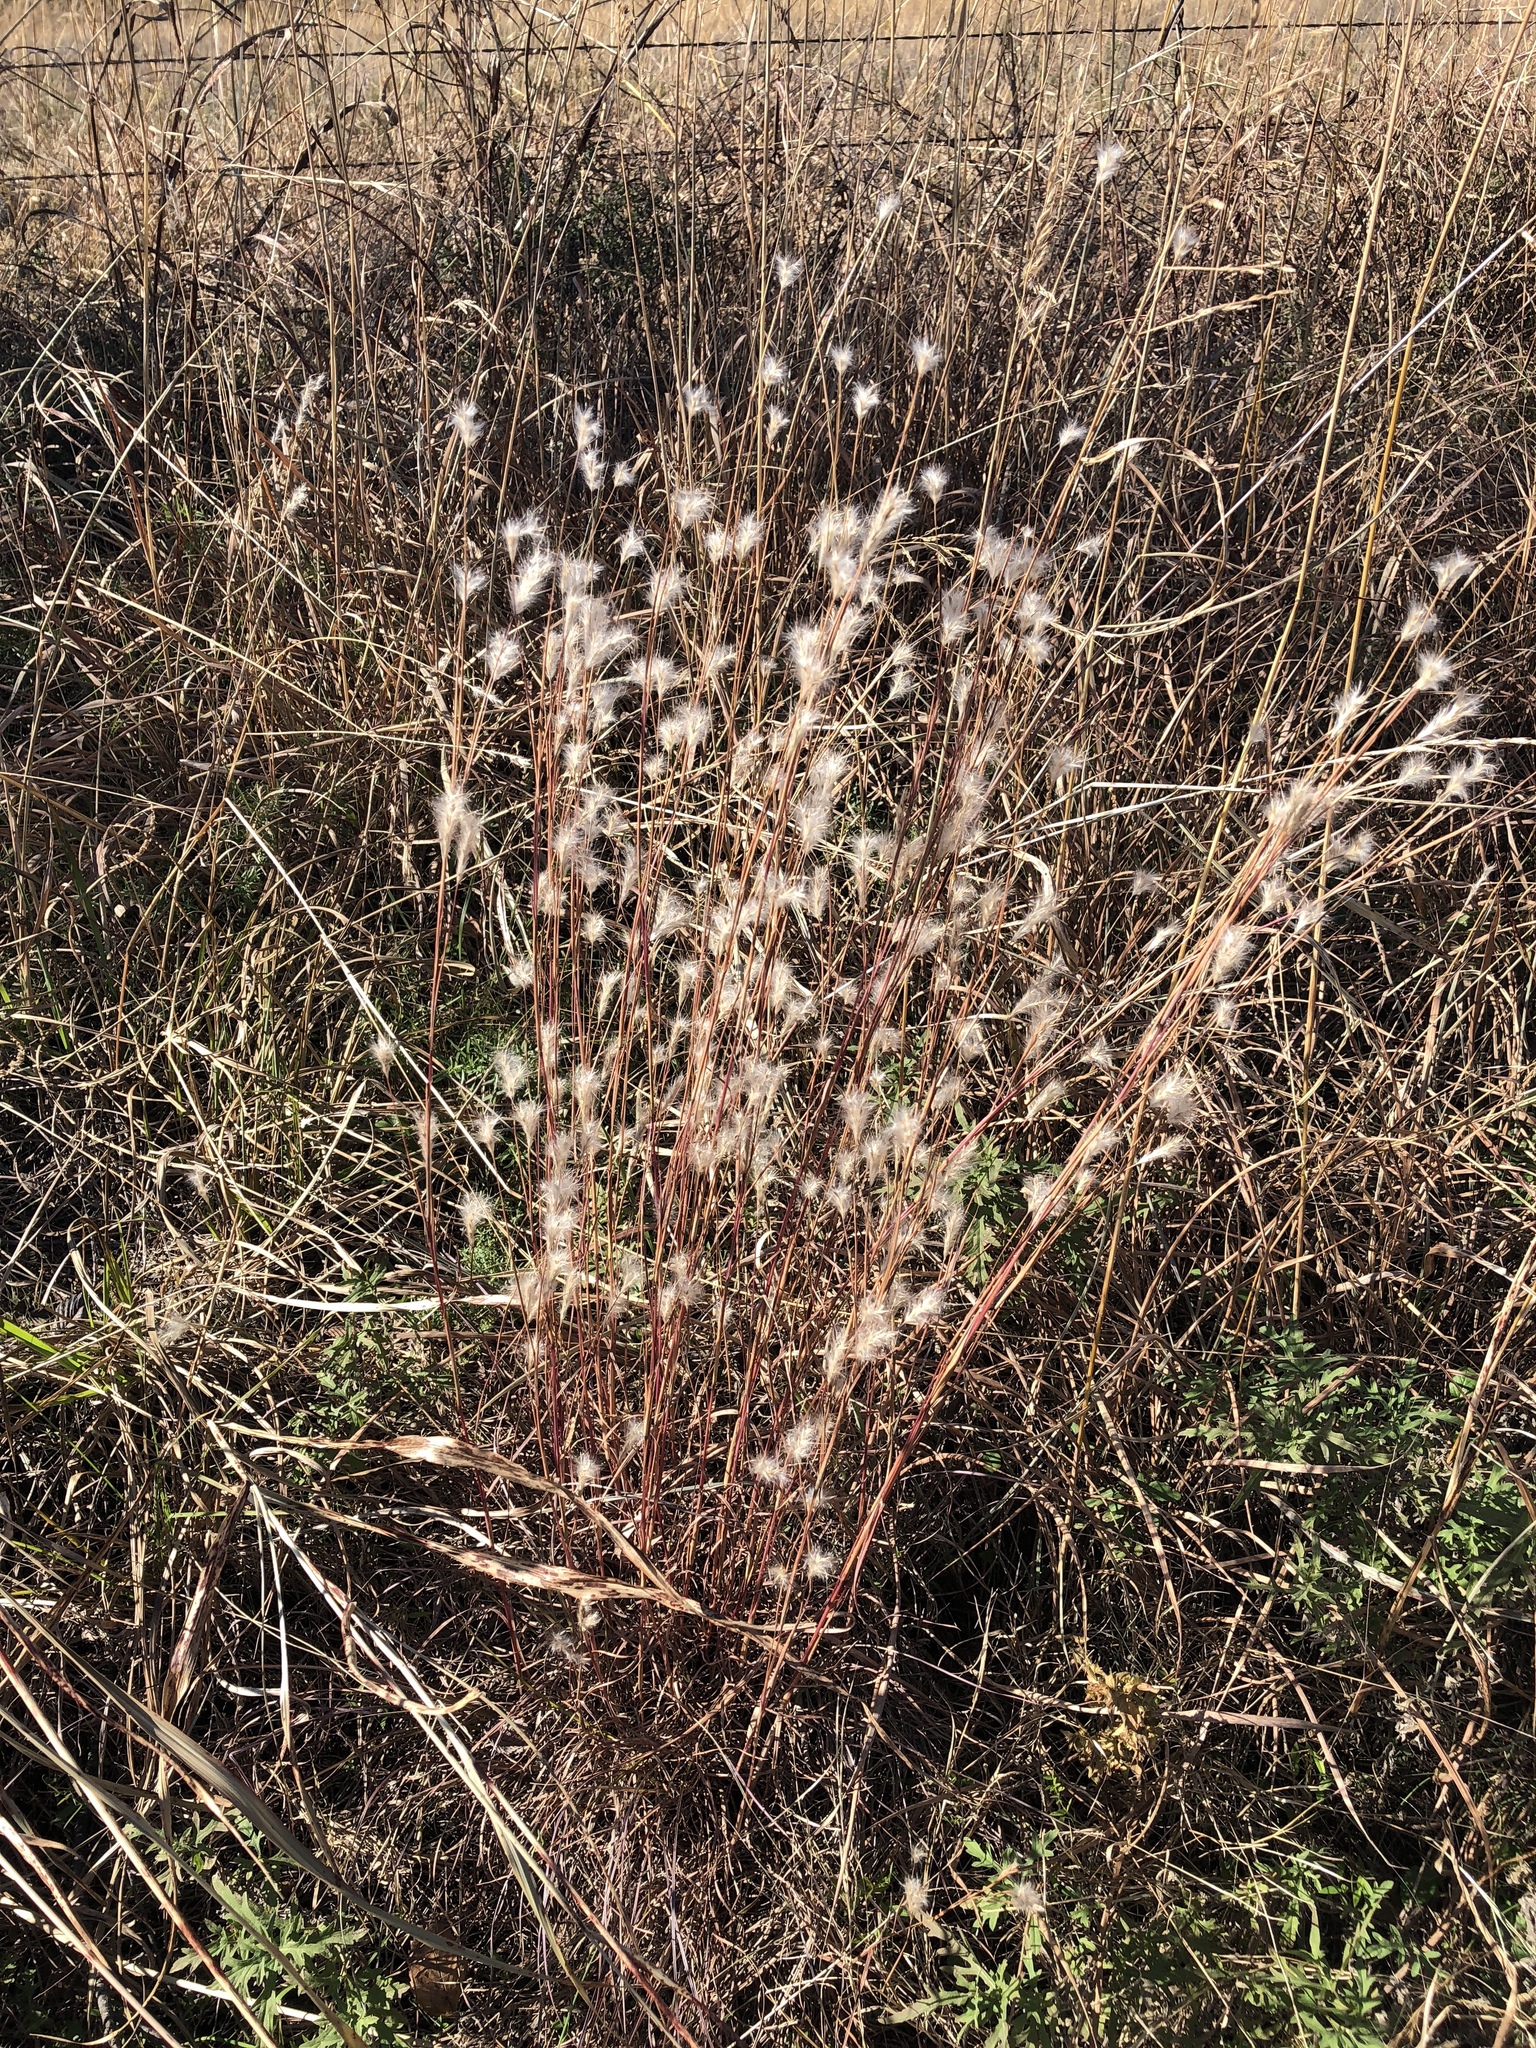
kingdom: Plantae
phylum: Tracheophyta
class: Liliopsida
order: Poales
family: Poaceae
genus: Andropogon
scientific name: Andropogon ternarius
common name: Split bluestem
